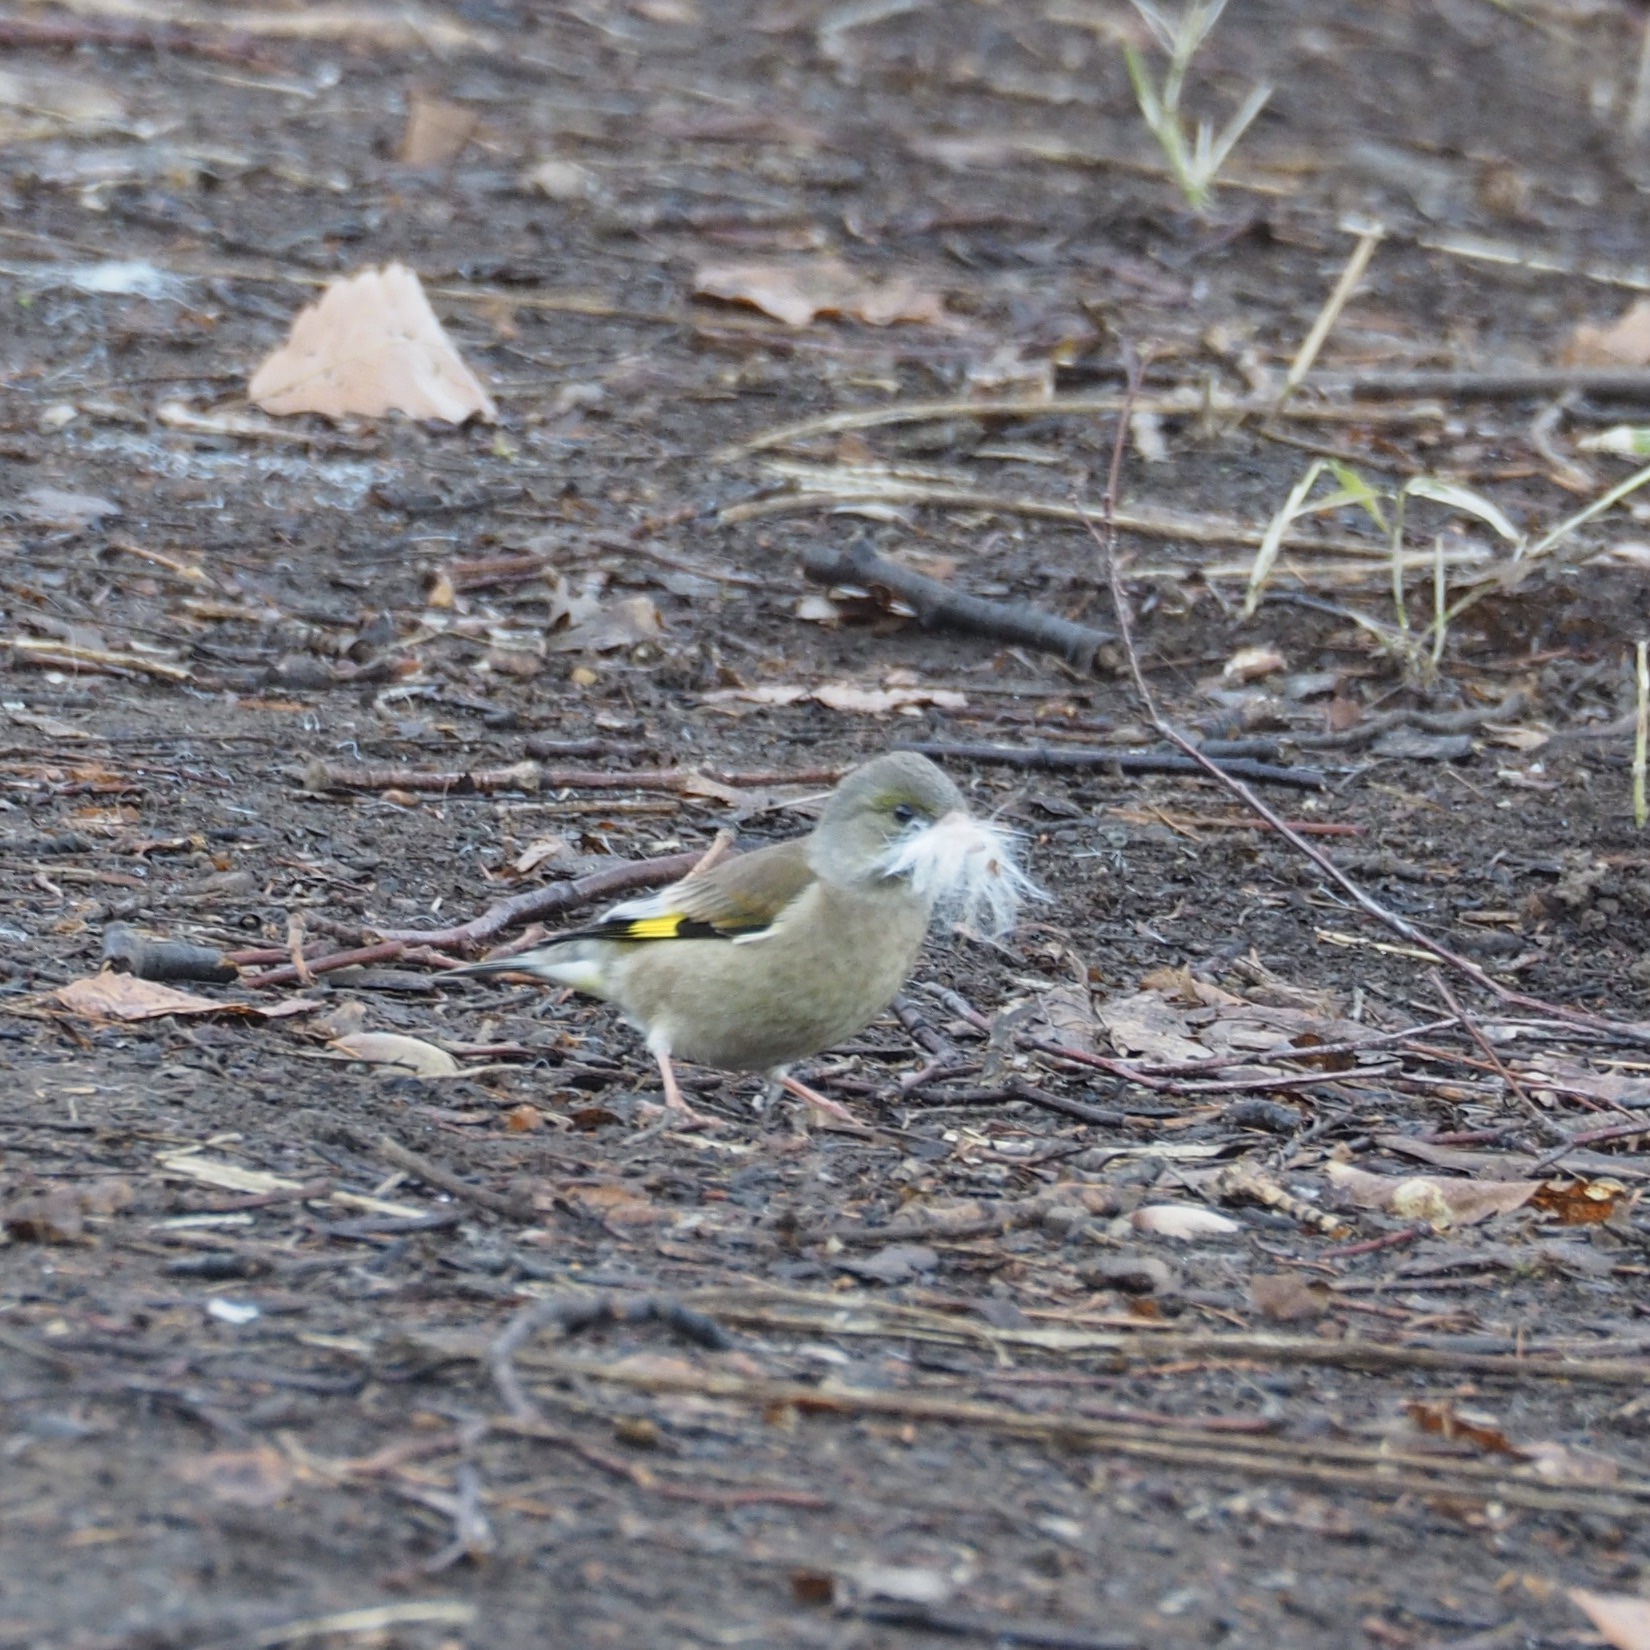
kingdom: Plantae
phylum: Tracheophyta
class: Liliopsida
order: Poales
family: Poaceae
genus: Chloris
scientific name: Chloris sinica
